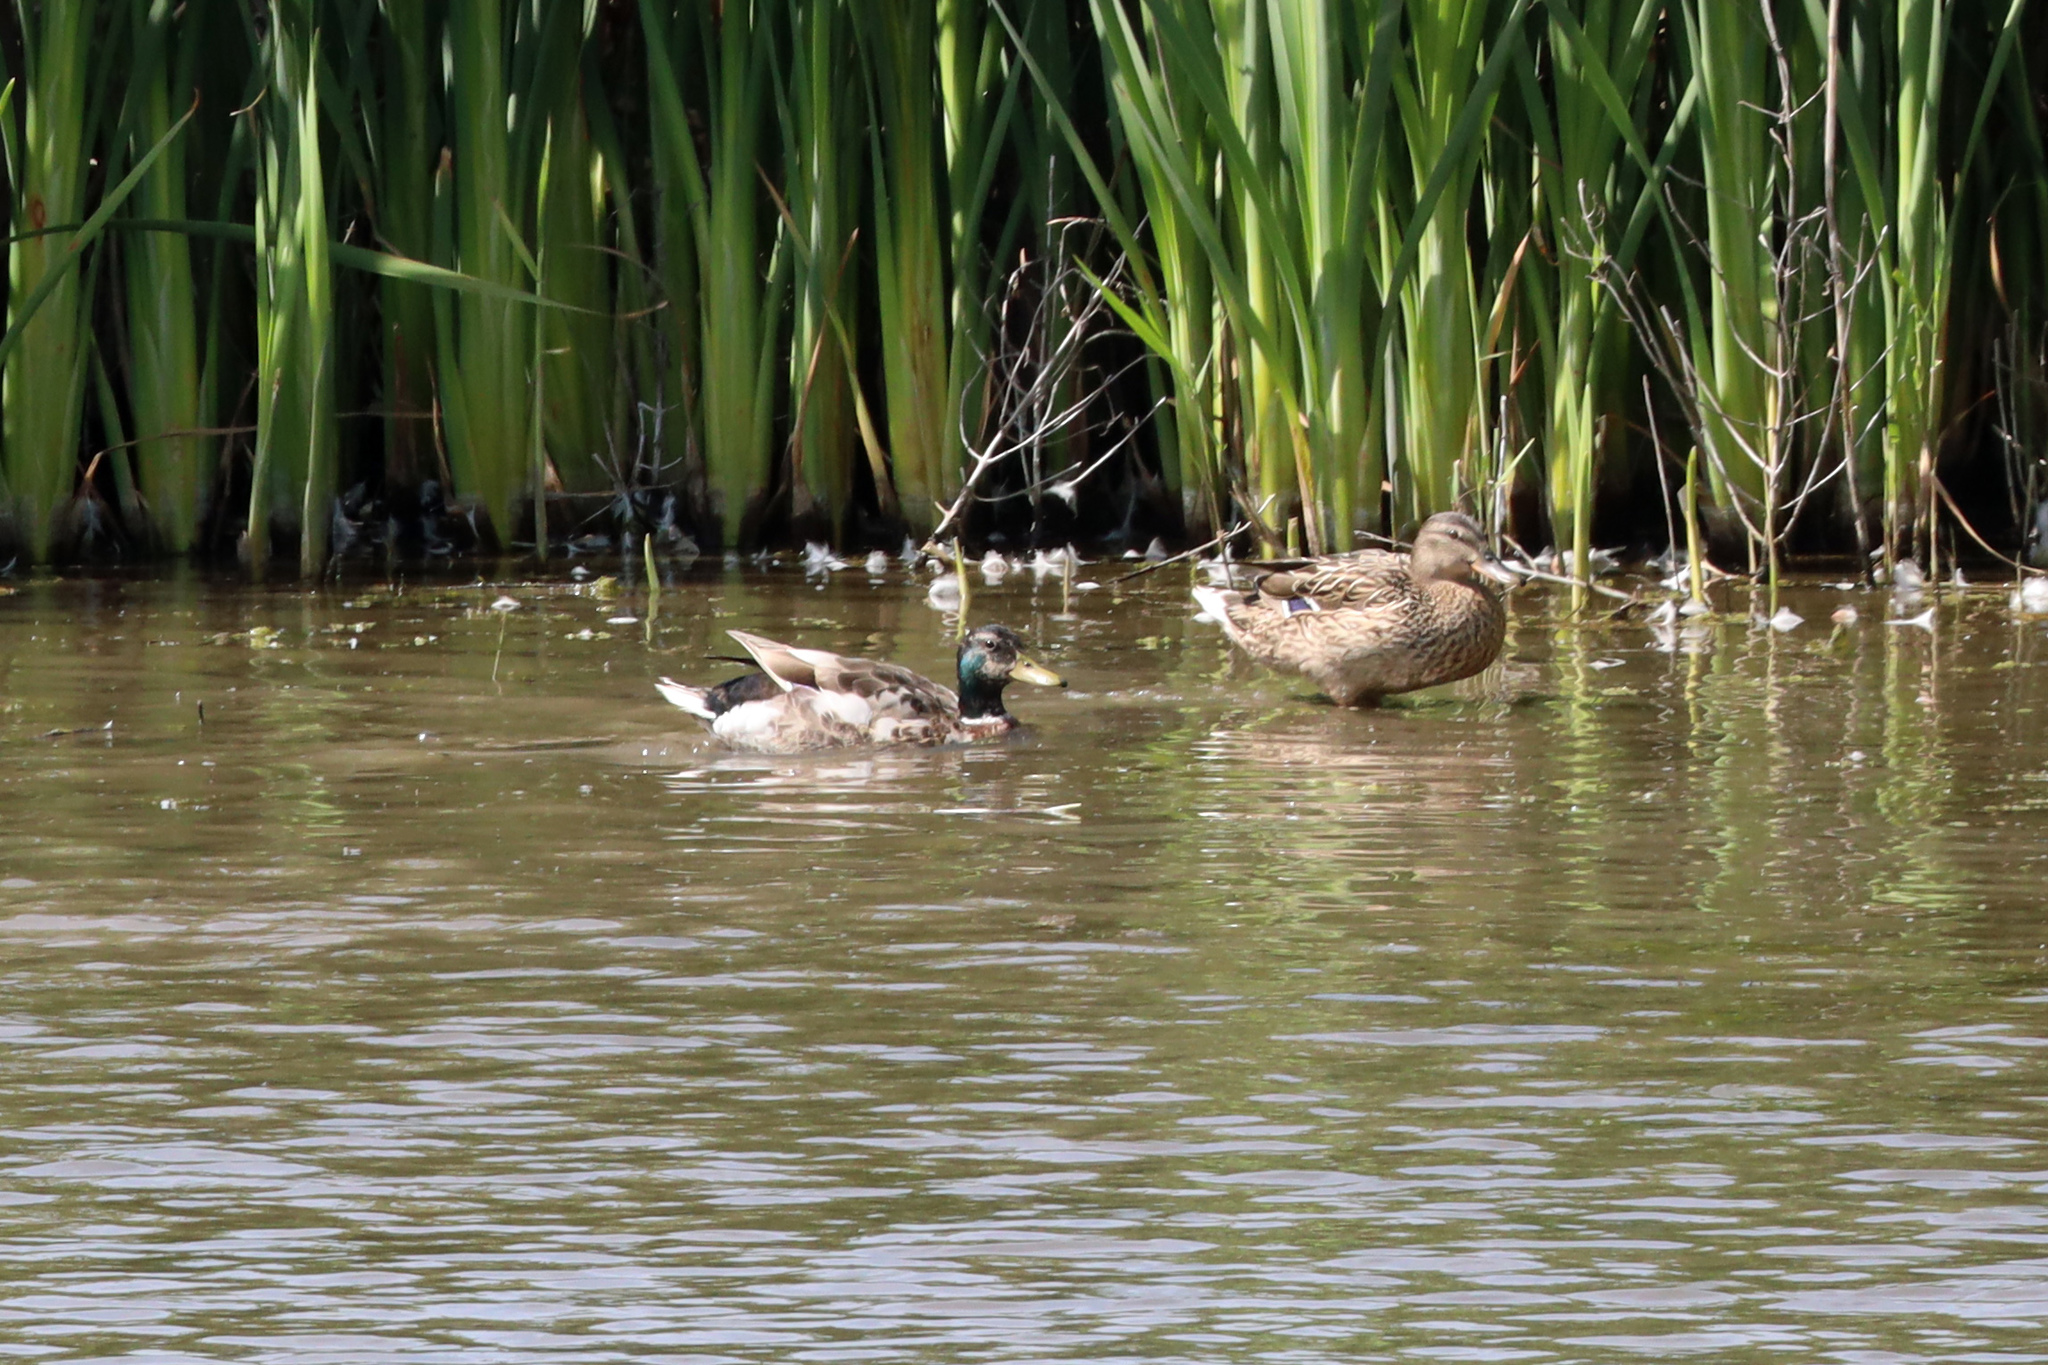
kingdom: Animalia
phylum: Chordata
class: Aves
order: Anseriformes
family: Anatidae
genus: Anas
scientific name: Anas platyrhynchos
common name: Mallard
